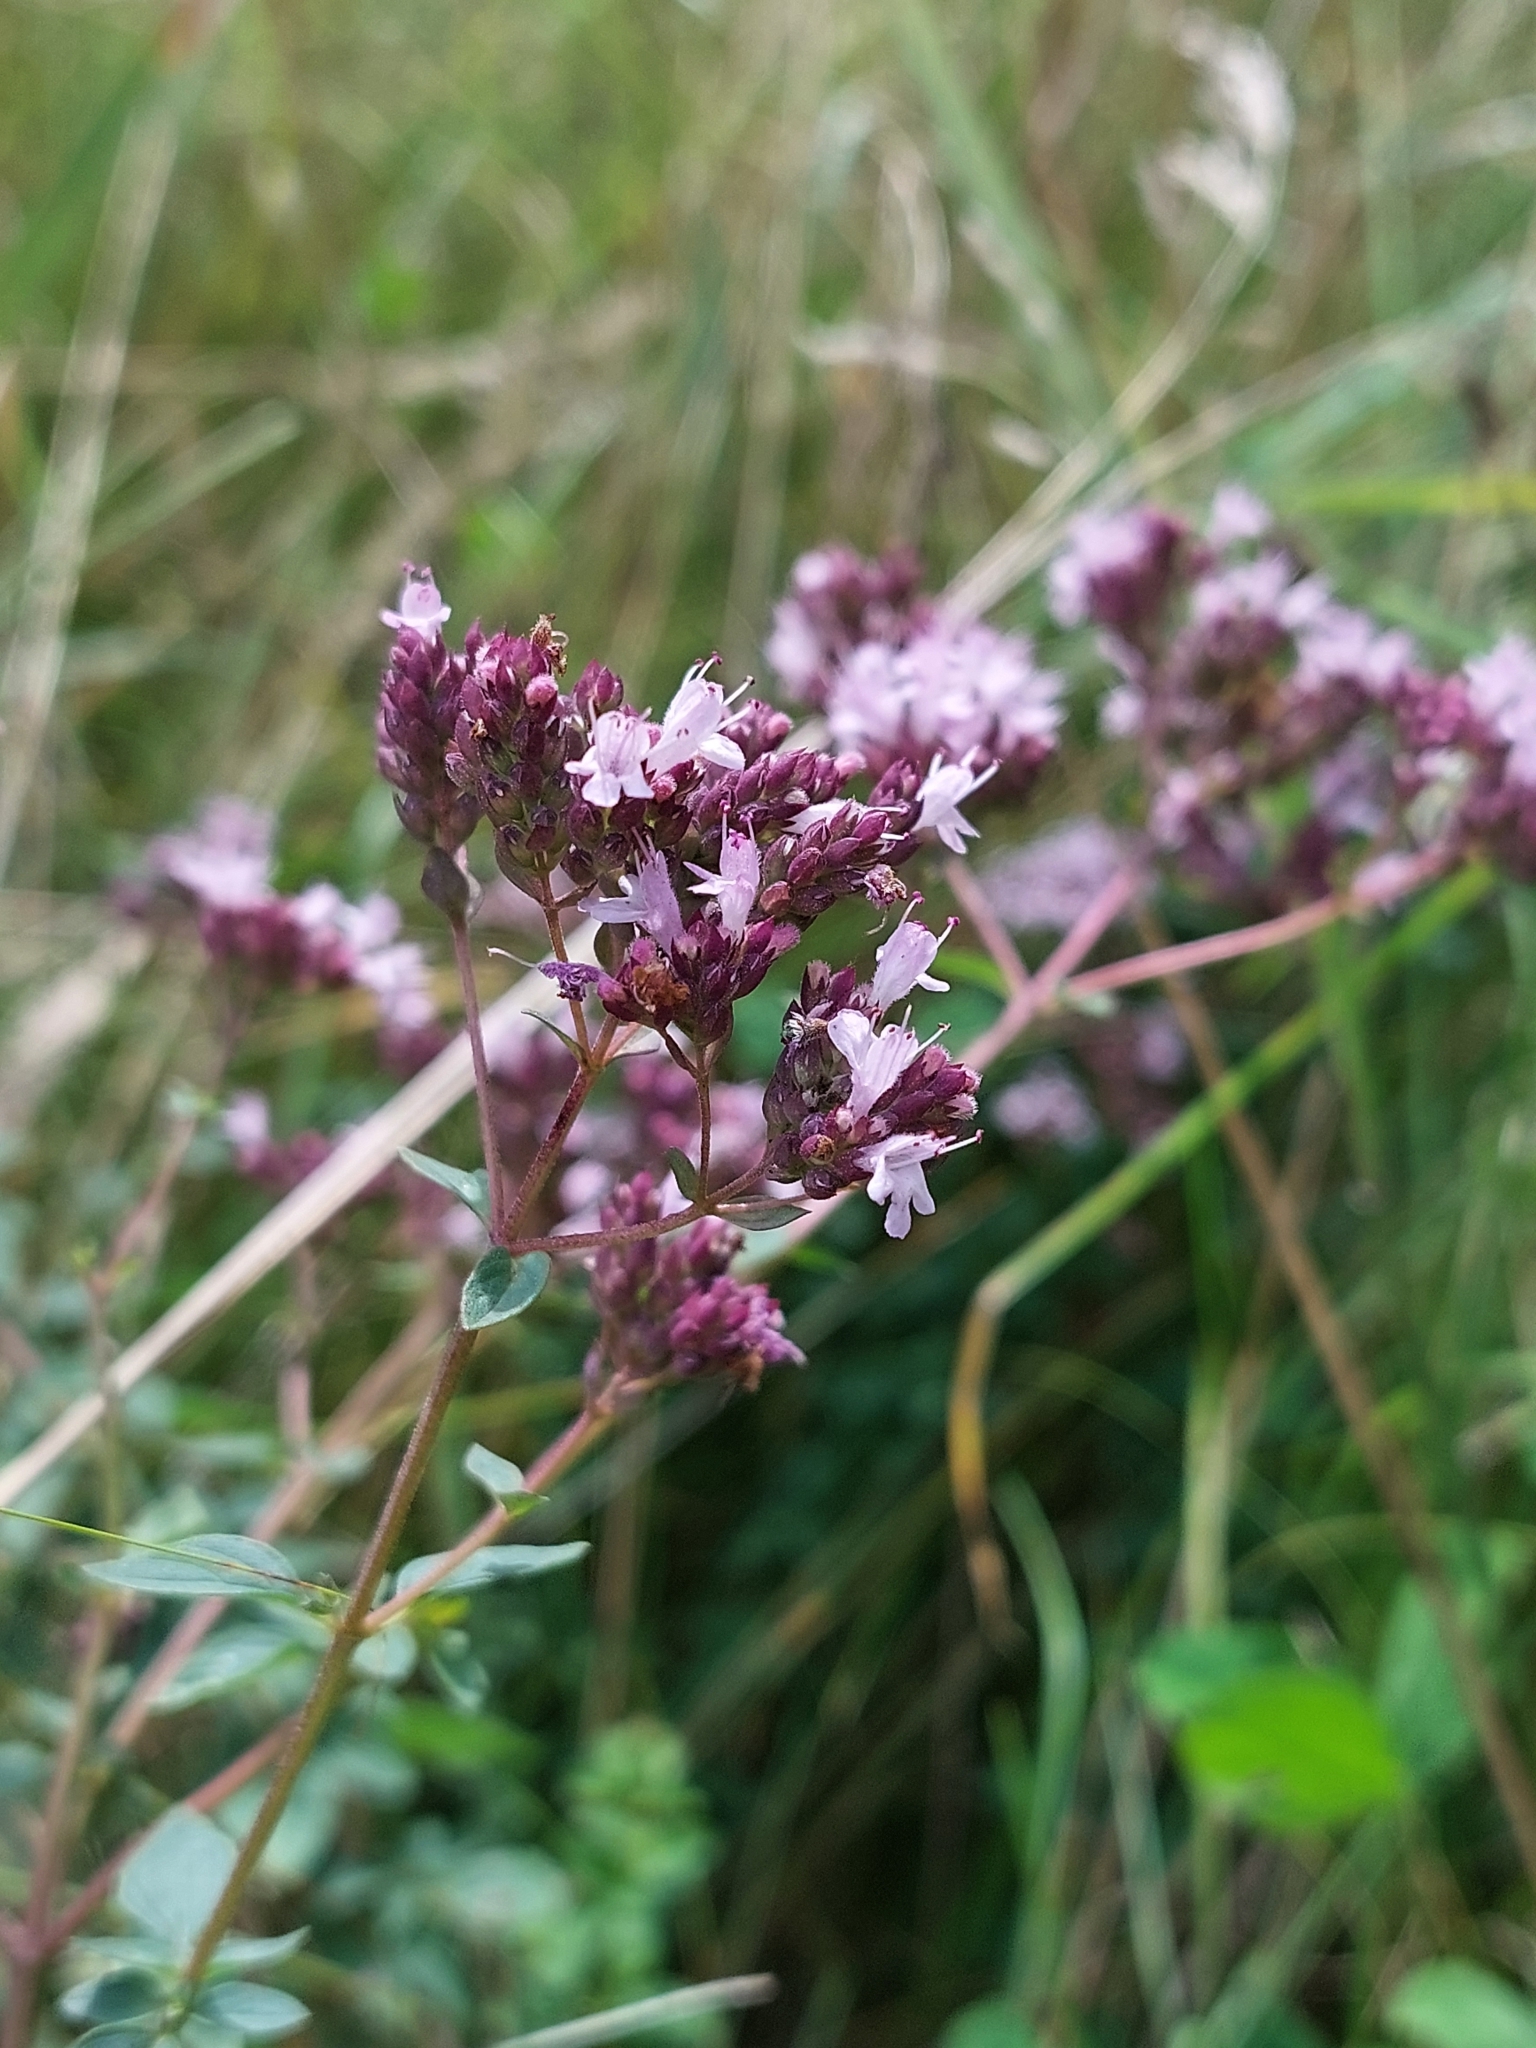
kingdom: Plantae
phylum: Tracheophyta
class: Magnoliopsida
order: Lamiales
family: Lamiaceae
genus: Origanum
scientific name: Origanum vulgare
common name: Wild marjoram
